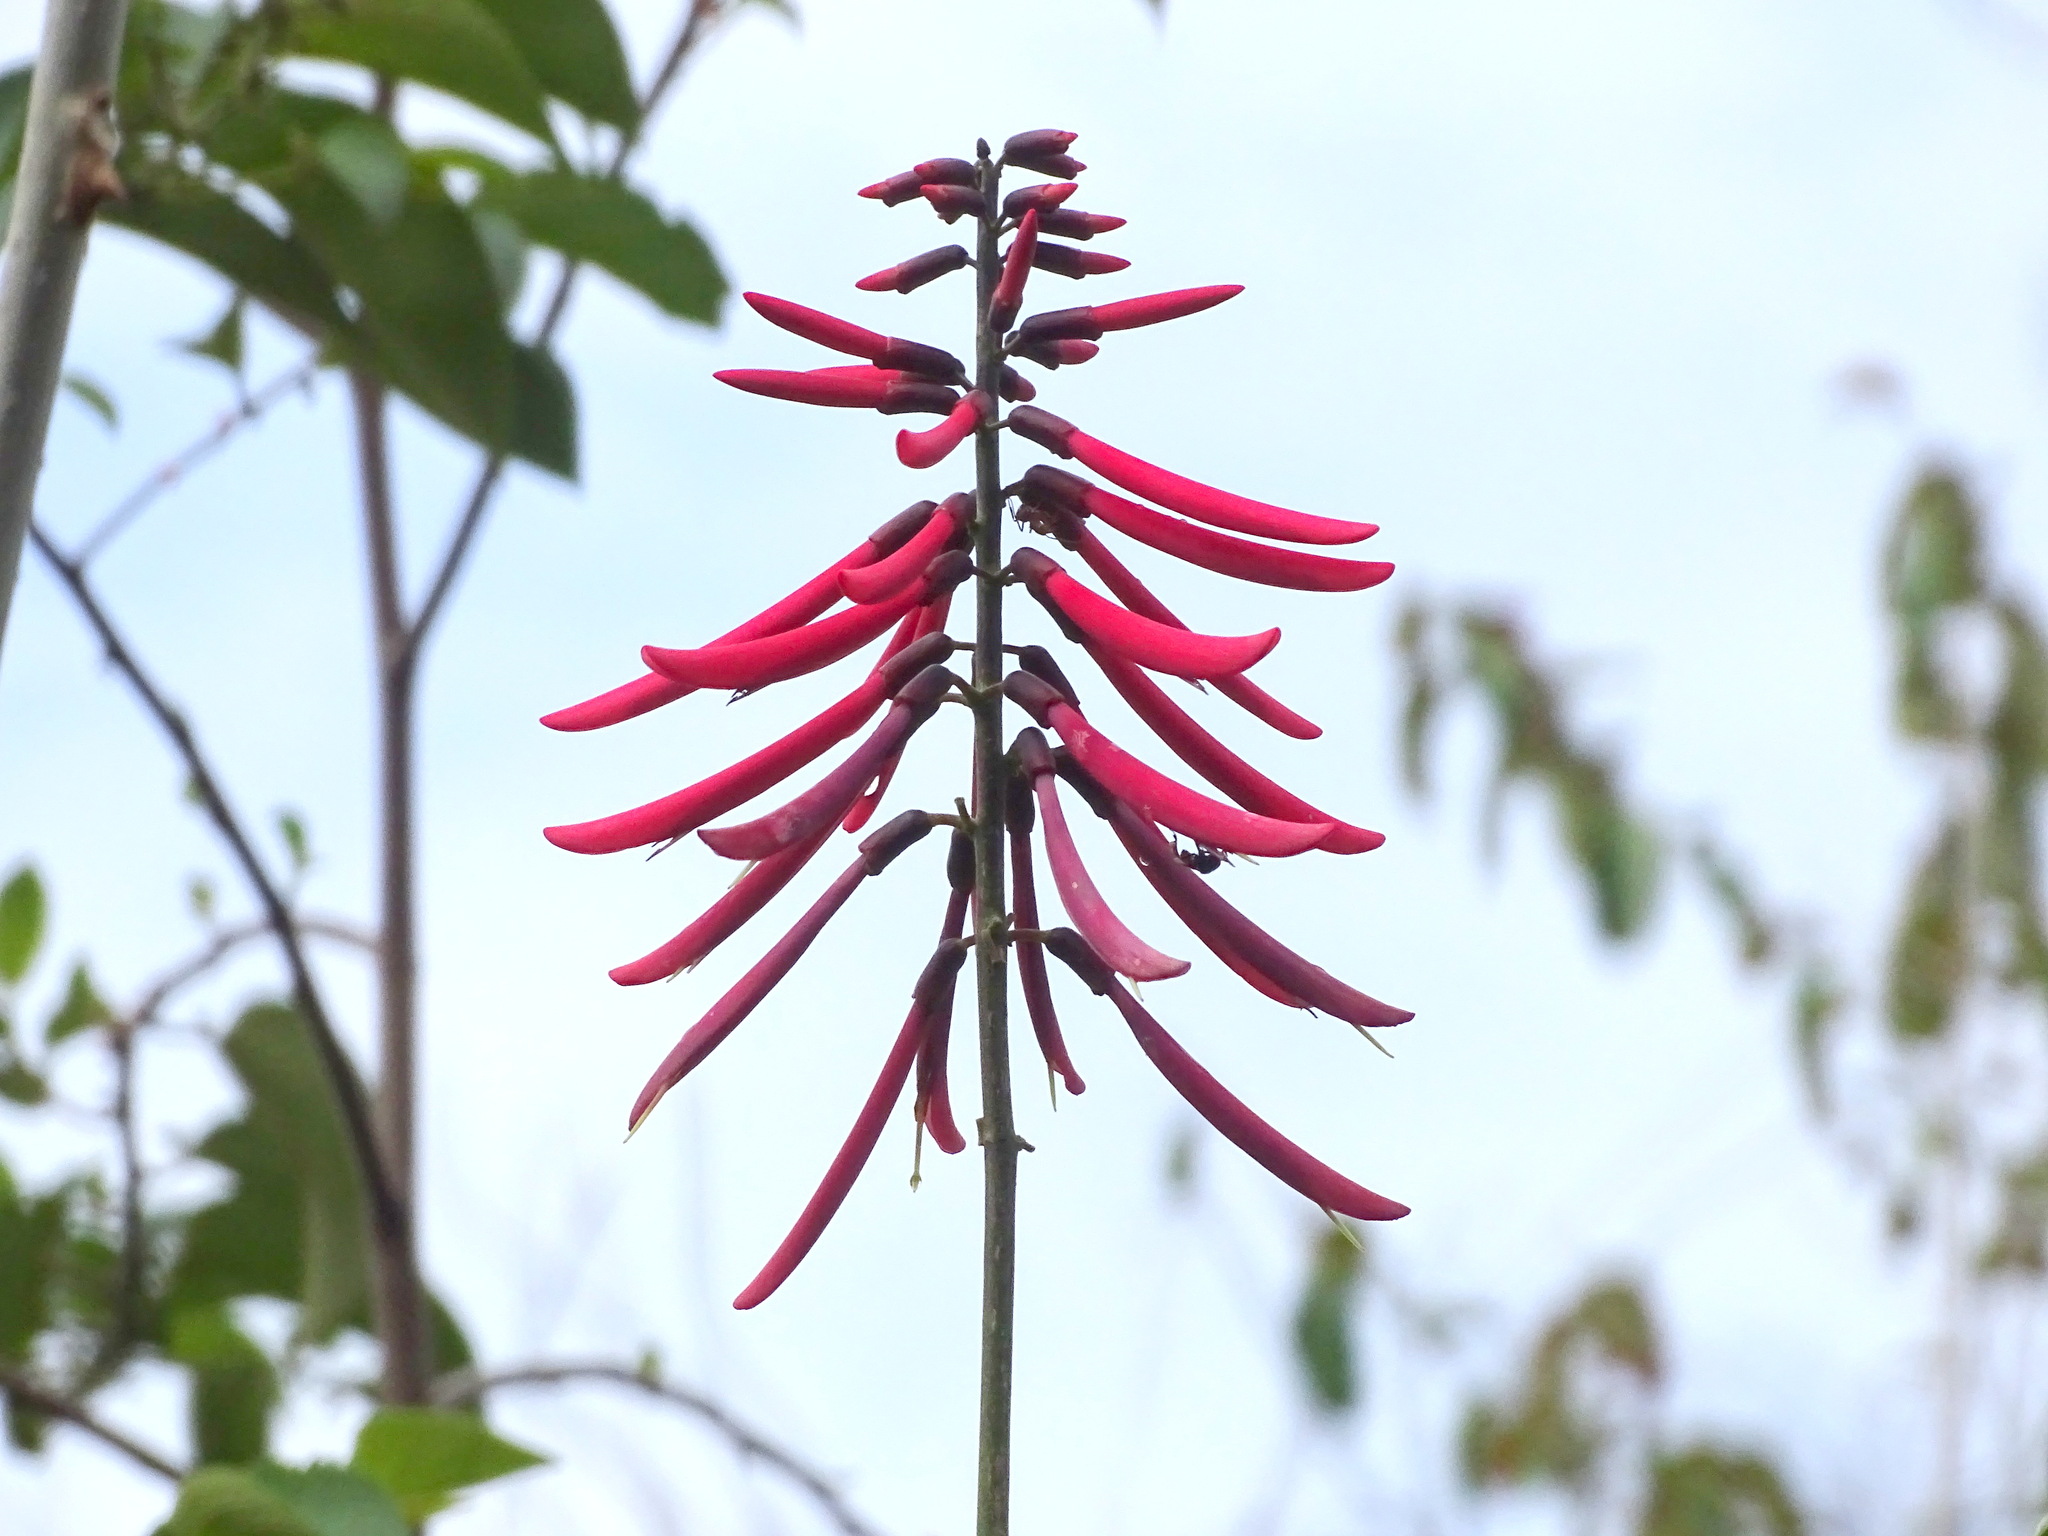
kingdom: Plantae
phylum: Tracheophyta
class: Magnoliopsida
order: Fabales
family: Fabaceae
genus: Erythrina
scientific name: Erythrina standleyana
